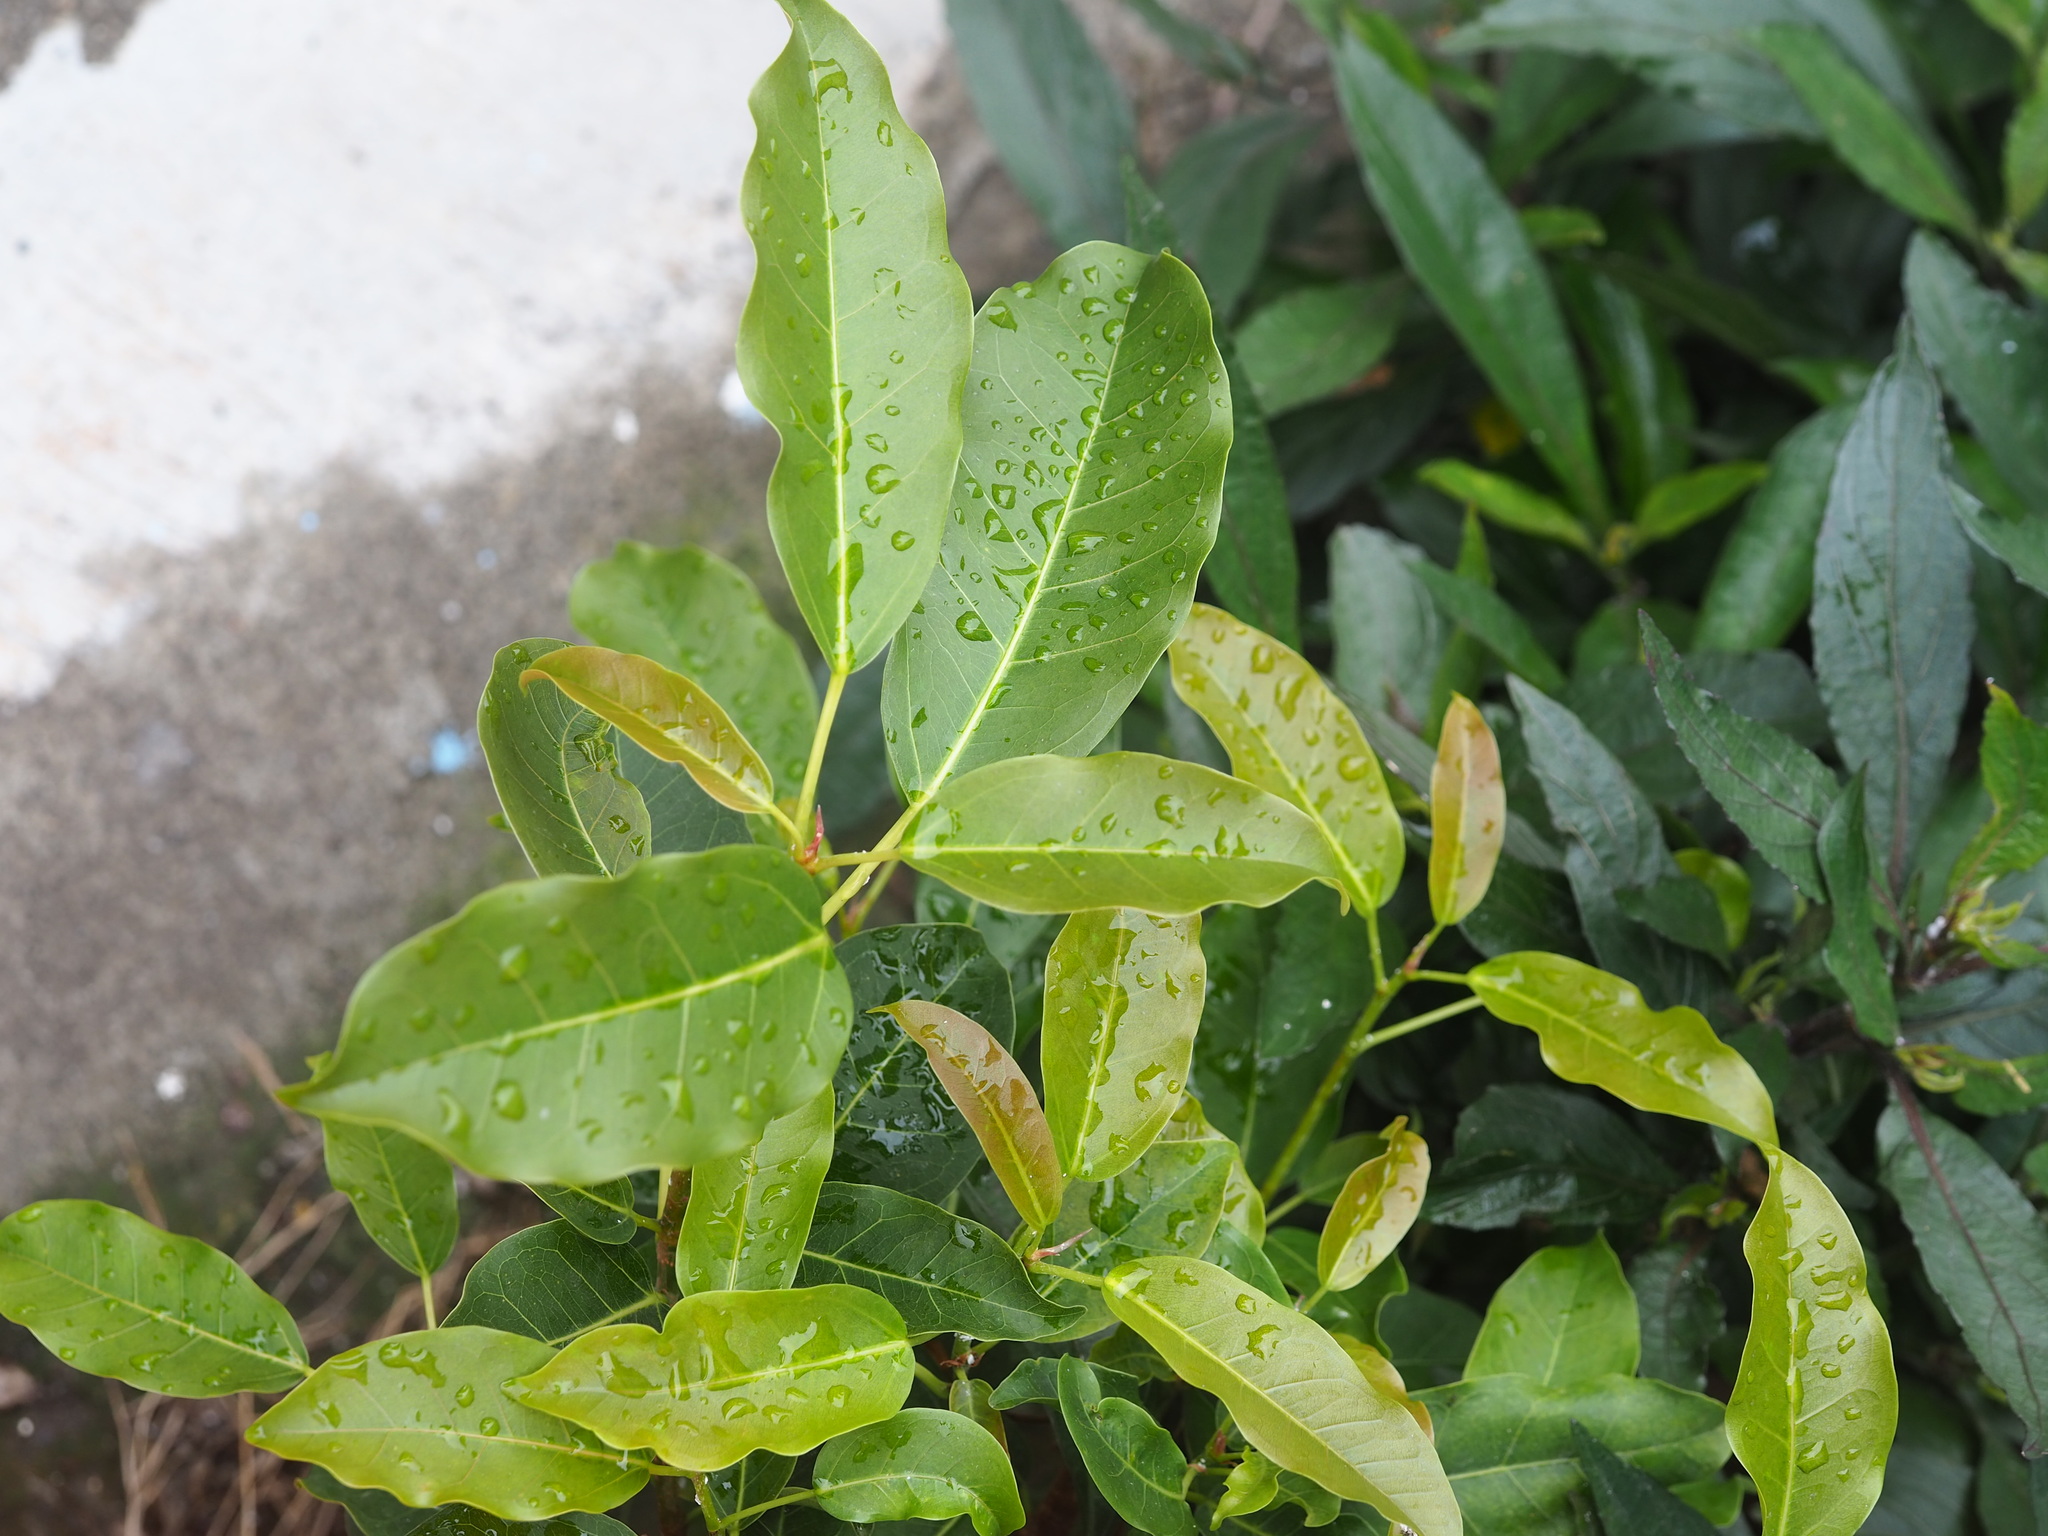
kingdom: Plantae
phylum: Tracheophyta
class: Magnoliopsida
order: Rosales
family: Moraceae
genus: Ficus
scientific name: Ficus subpisocarpa
